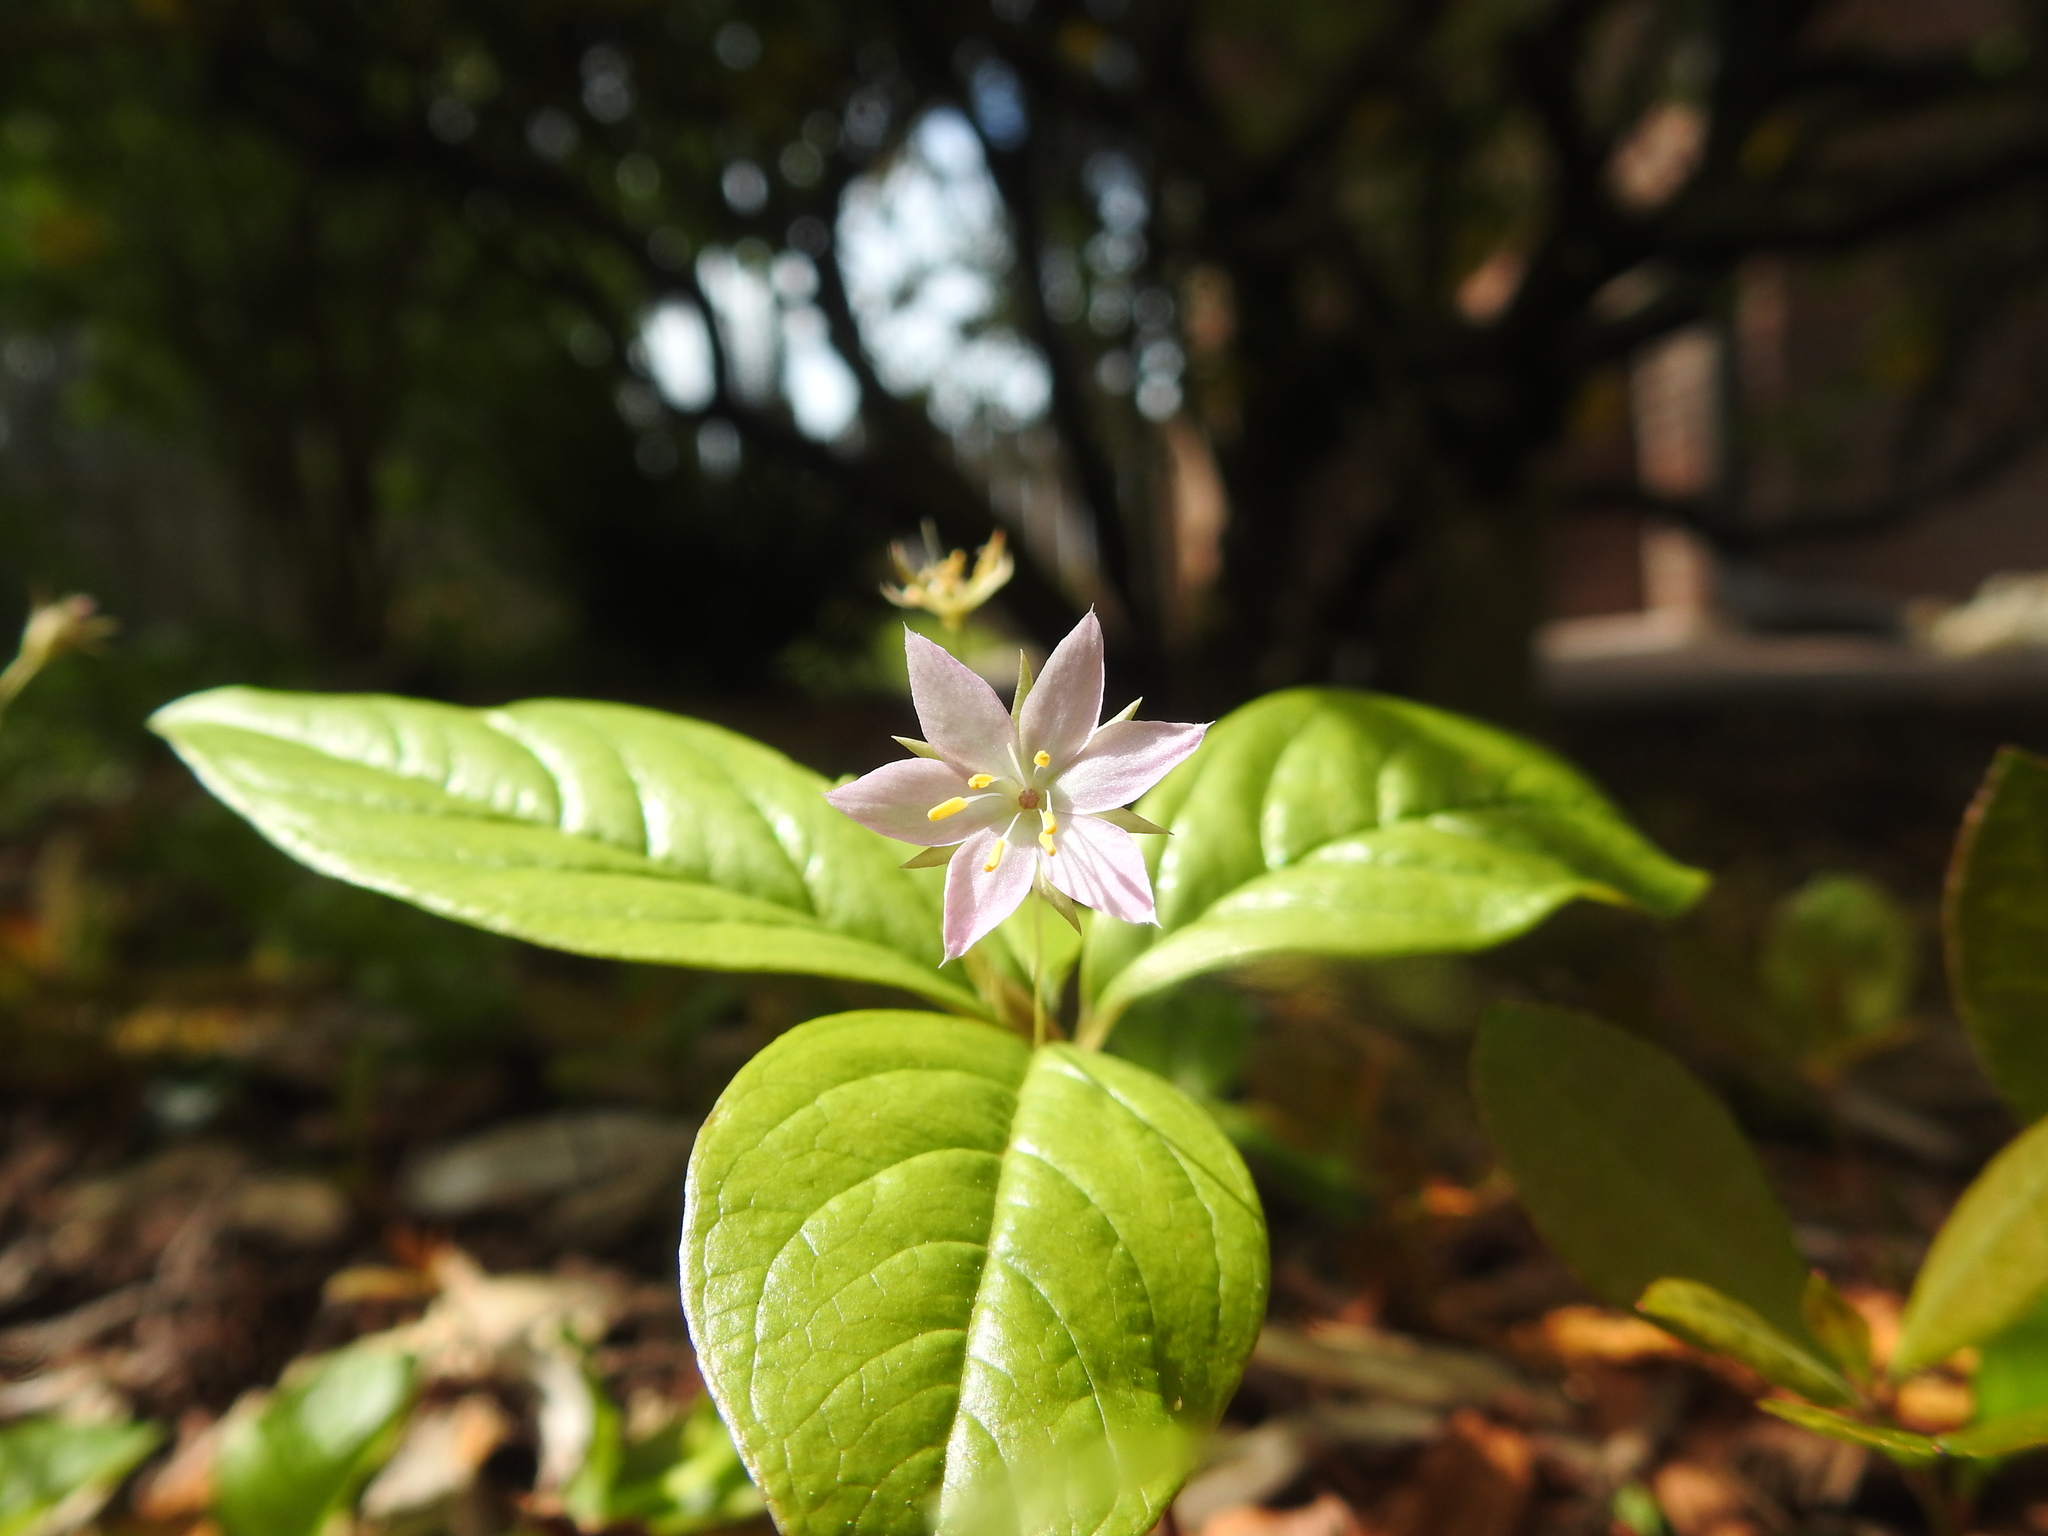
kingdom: Plantae
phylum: Tracheophyta
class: Magnoliopsida
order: Ericales
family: Primulaceae
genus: Lysimachia
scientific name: Lysimachia latifolia
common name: Pacific starflower
